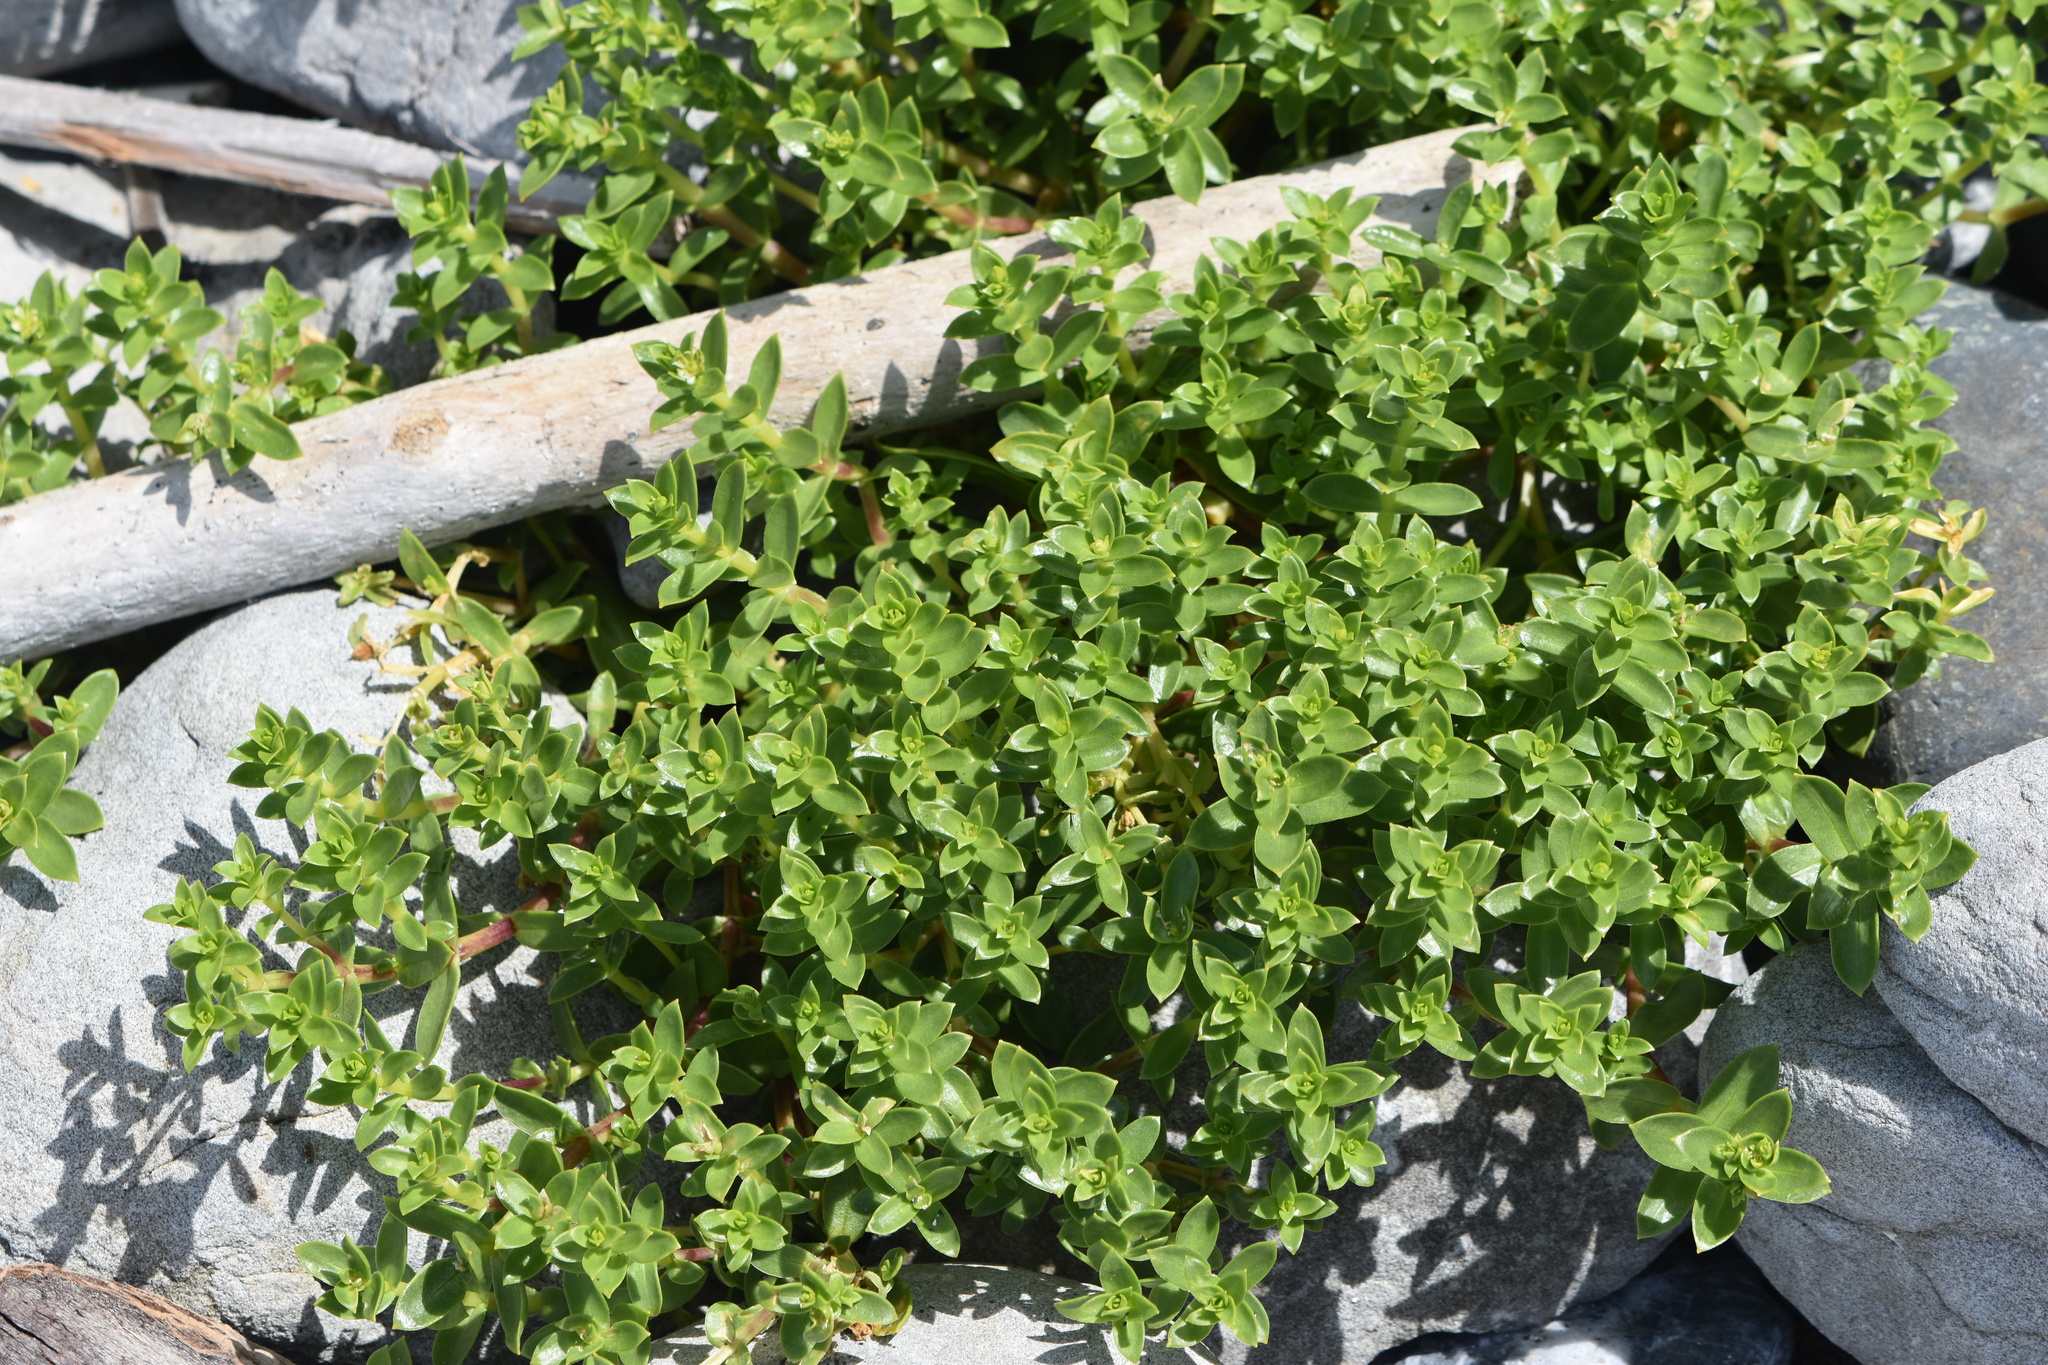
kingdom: Plantae
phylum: Tracheophyta
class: Magnoliopsida
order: Caryophyllales
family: Caryophyllaceae
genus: Honckenya
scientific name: Honckenya peploides
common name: Sea sandwort
